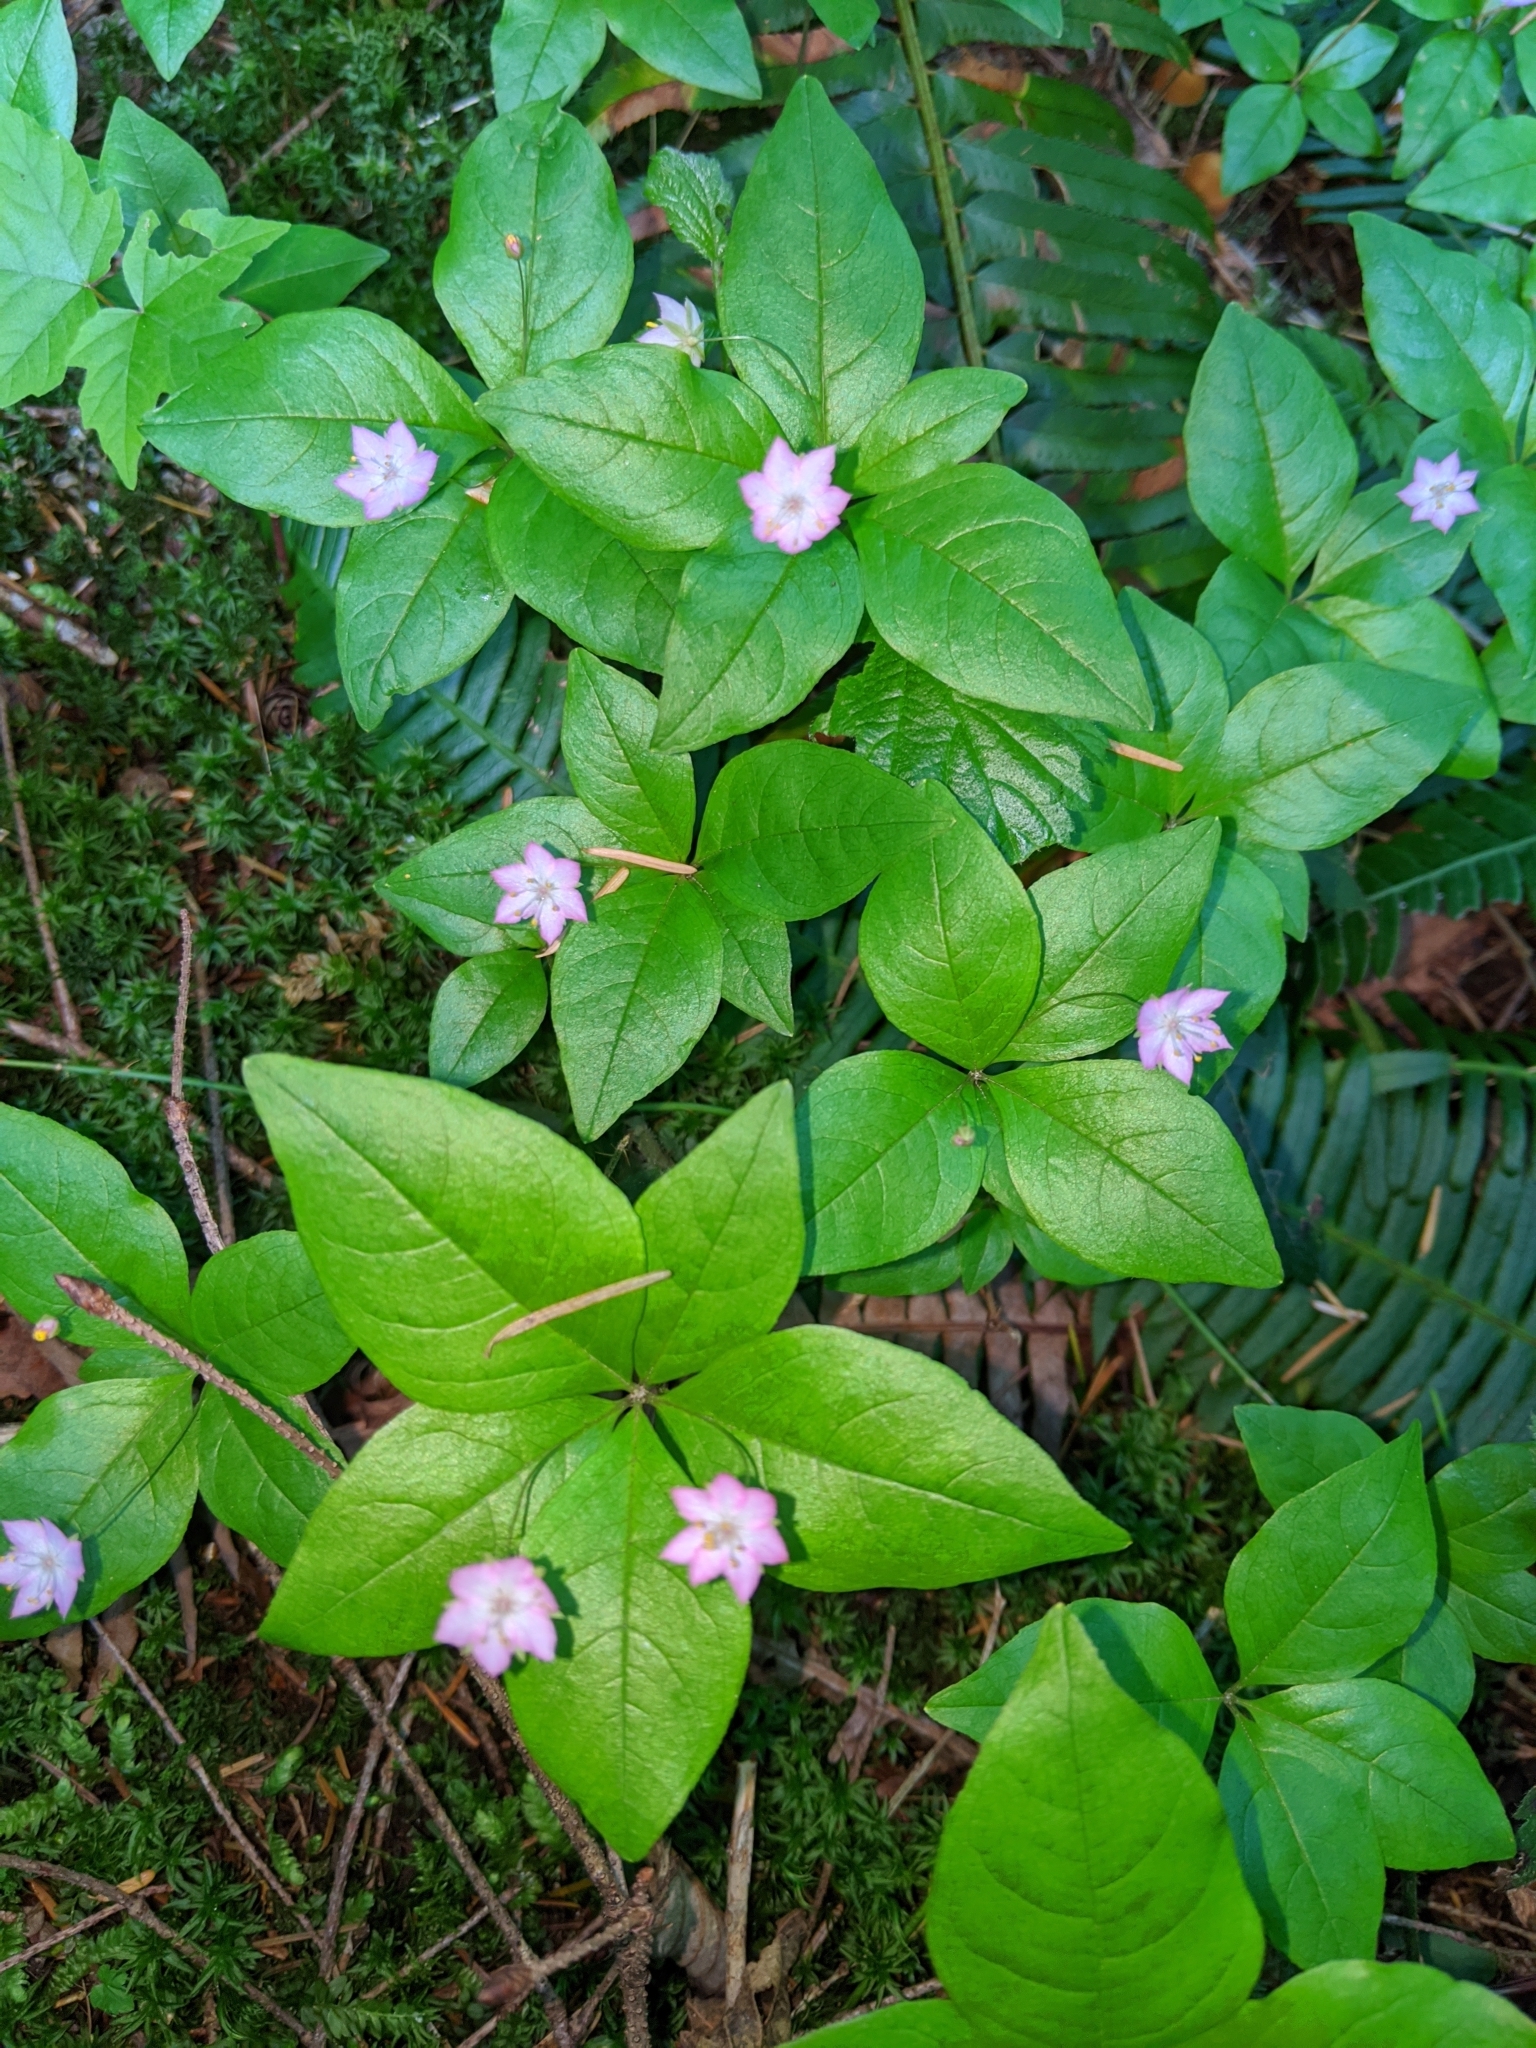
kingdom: Plantae
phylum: Tracheophyta
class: Magnoliopsida
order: Ericales
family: Primulaceae
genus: Lysimachia
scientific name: Lysimachia latifolia
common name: Pacific starflower
